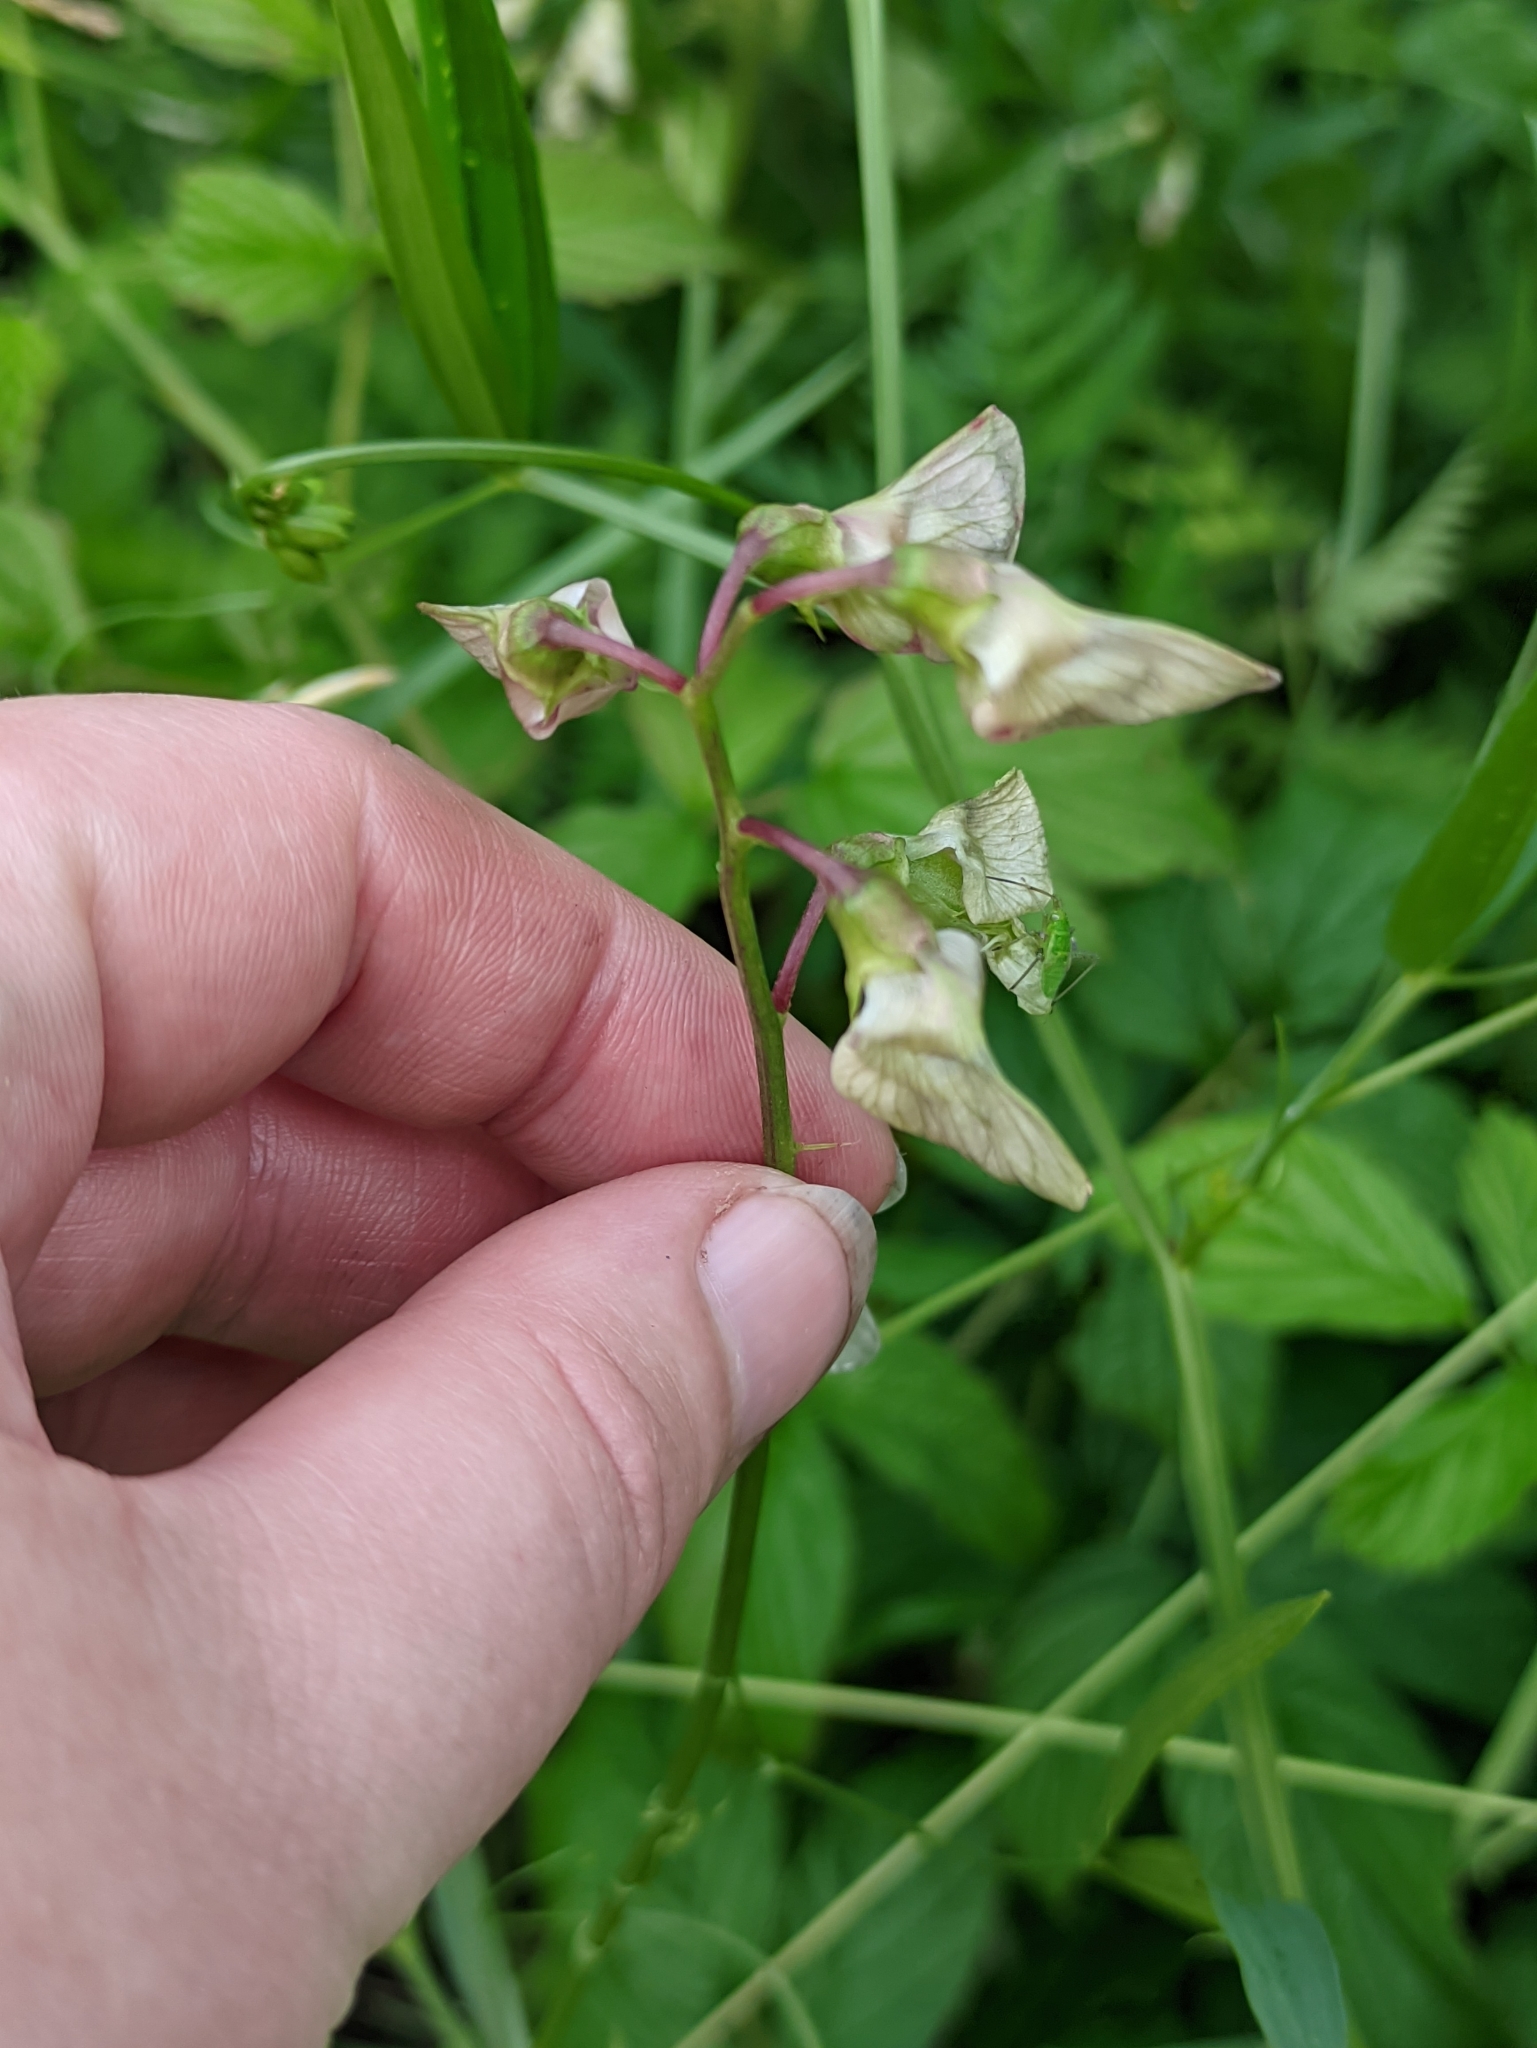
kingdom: Plantae
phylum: Tracheophyta
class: Magnoliopsida
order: Fabales
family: Fabaceae
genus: Lathyrus
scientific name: Lathyrus sylvestris
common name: Flat pea
